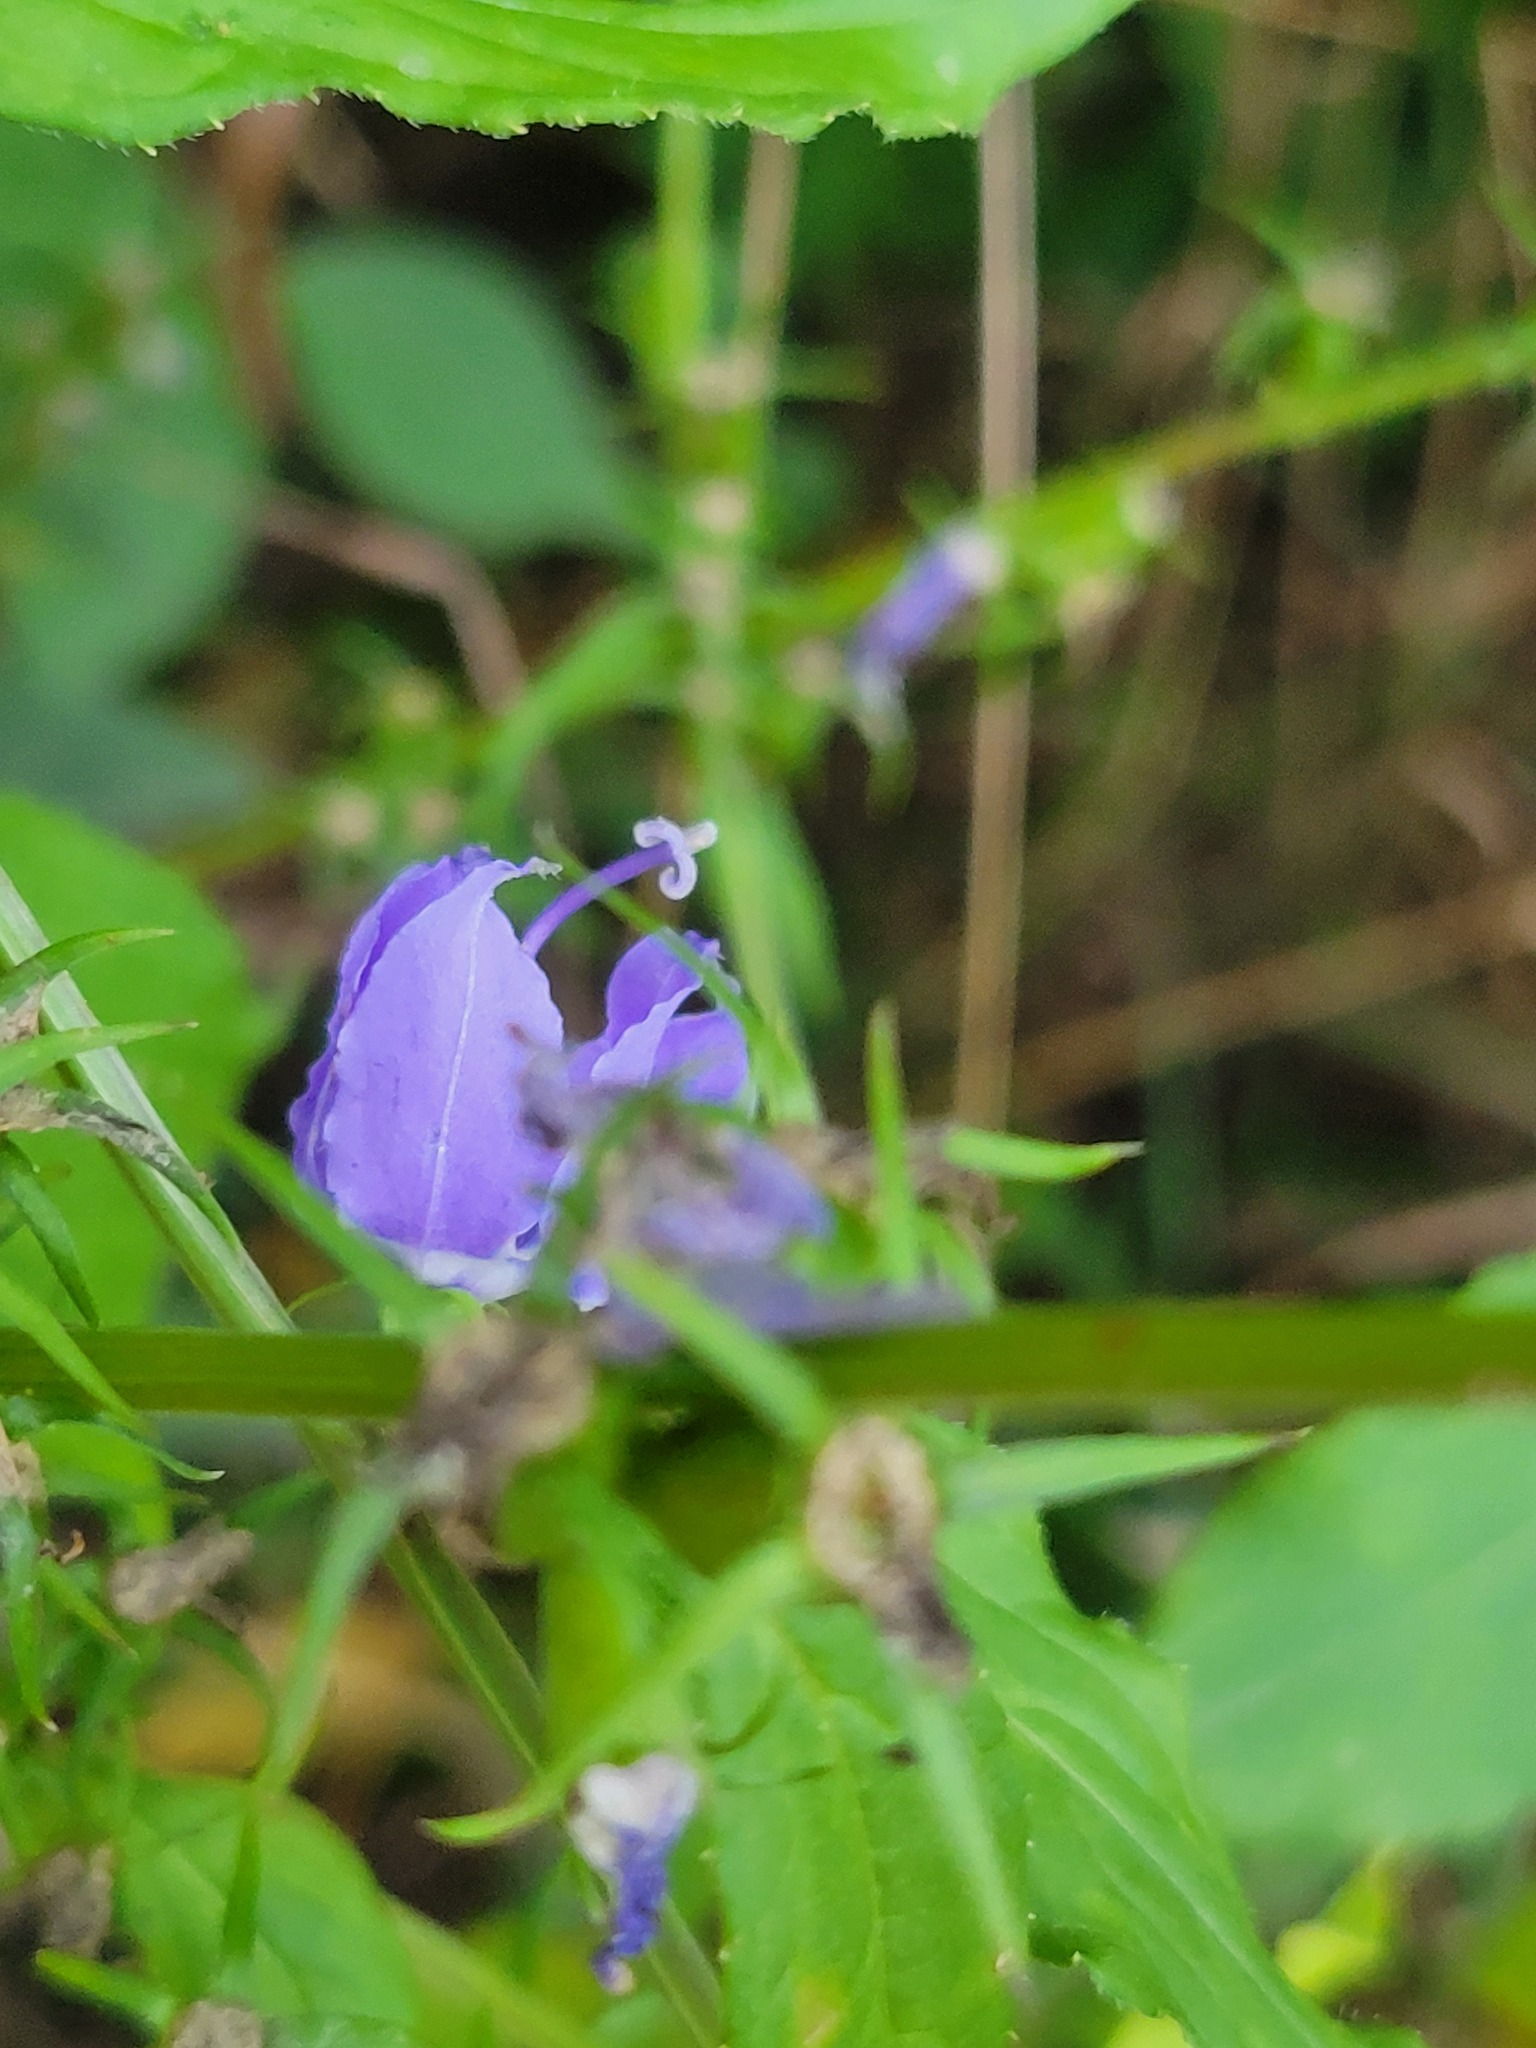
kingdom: Plantae
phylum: Tracheophyta
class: Magnoliopsida
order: Asterales
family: Campanulaceae
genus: Campanulastrum
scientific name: Campanulastrum americanum
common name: American bellflower
